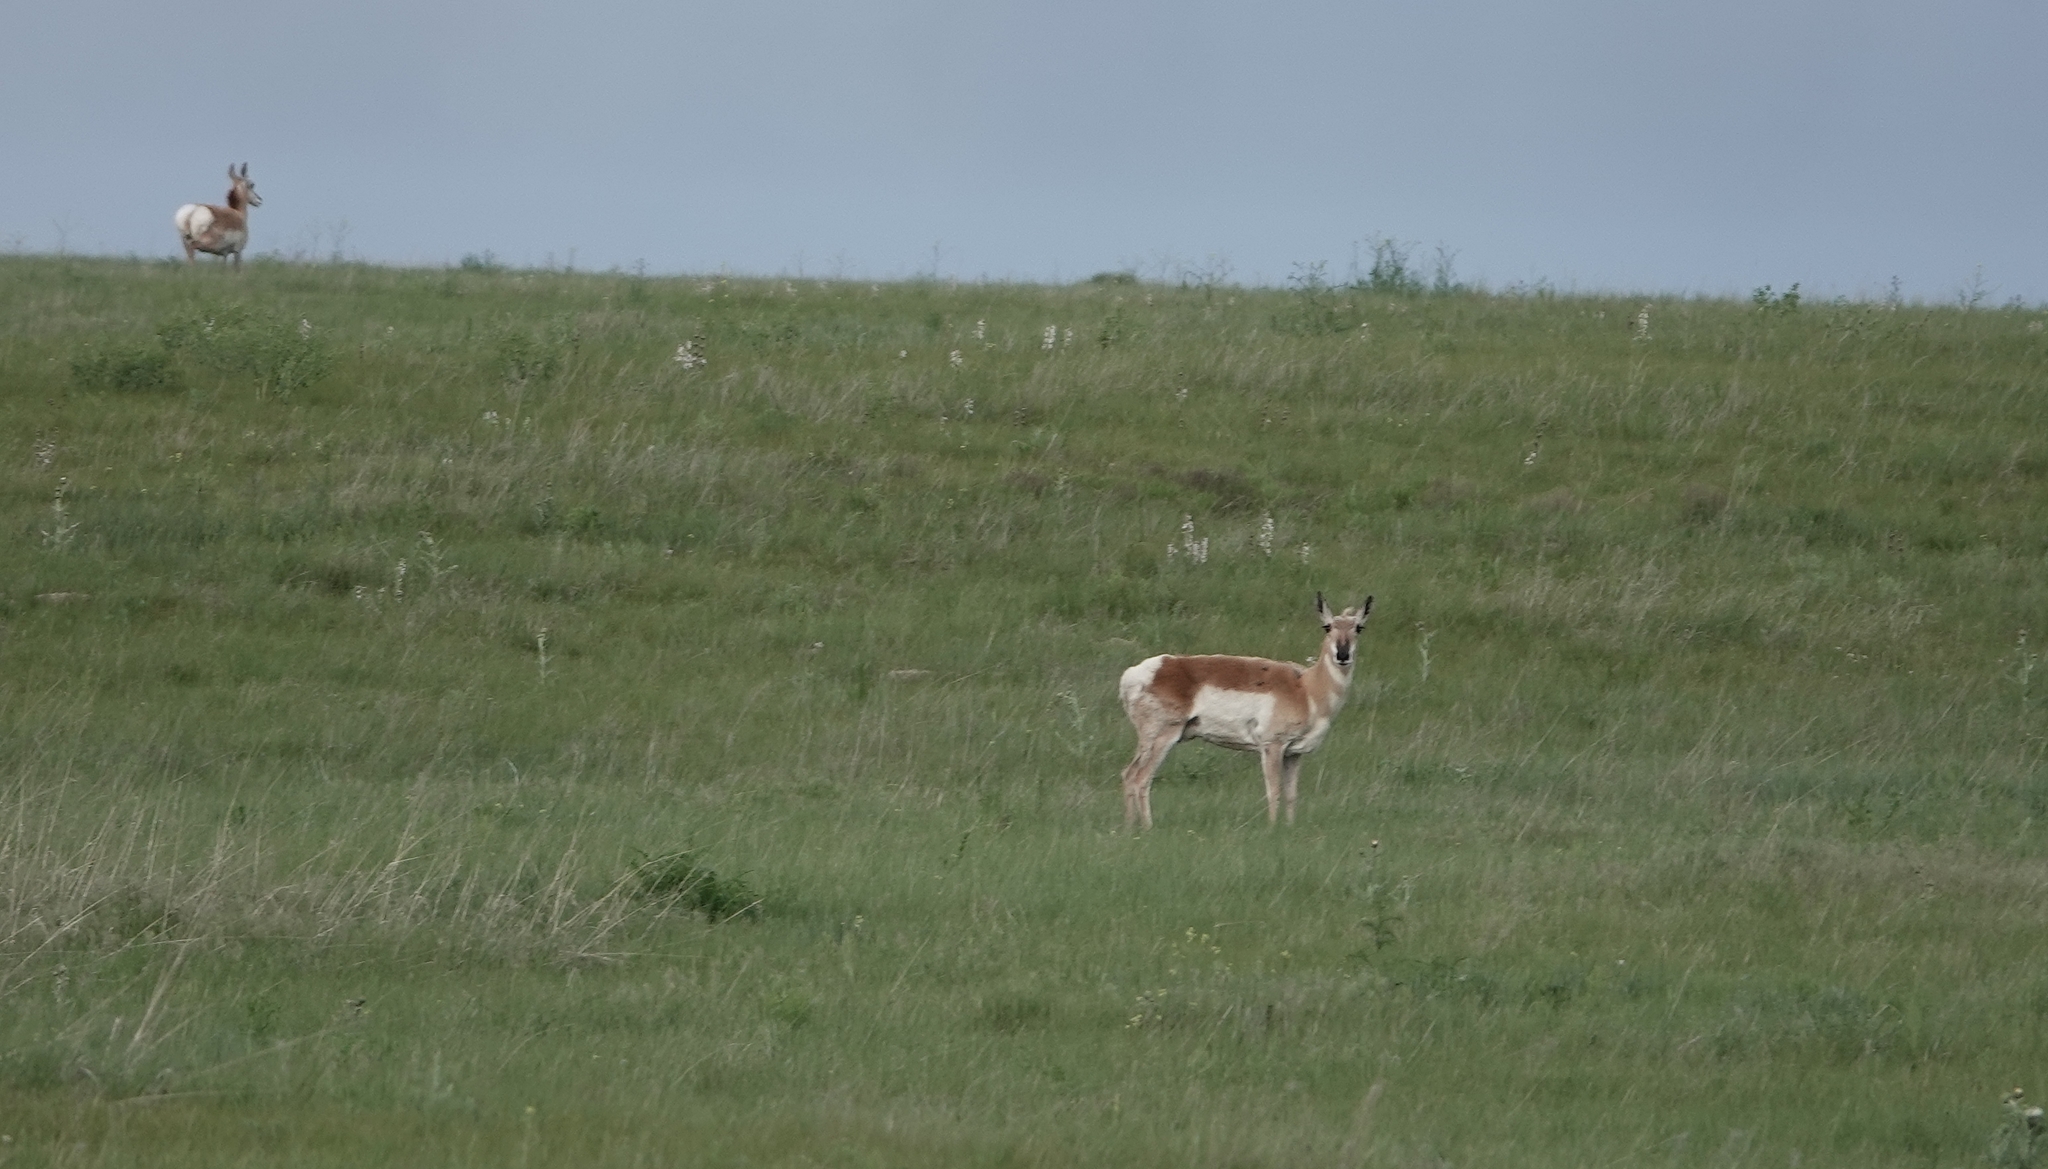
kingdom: Animalia
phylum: Chordata
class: Mammalia
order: Artiodactyla
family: Antilocapridae
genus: Antilocapra
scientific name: Antilocapra americana
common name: Pronghorn
